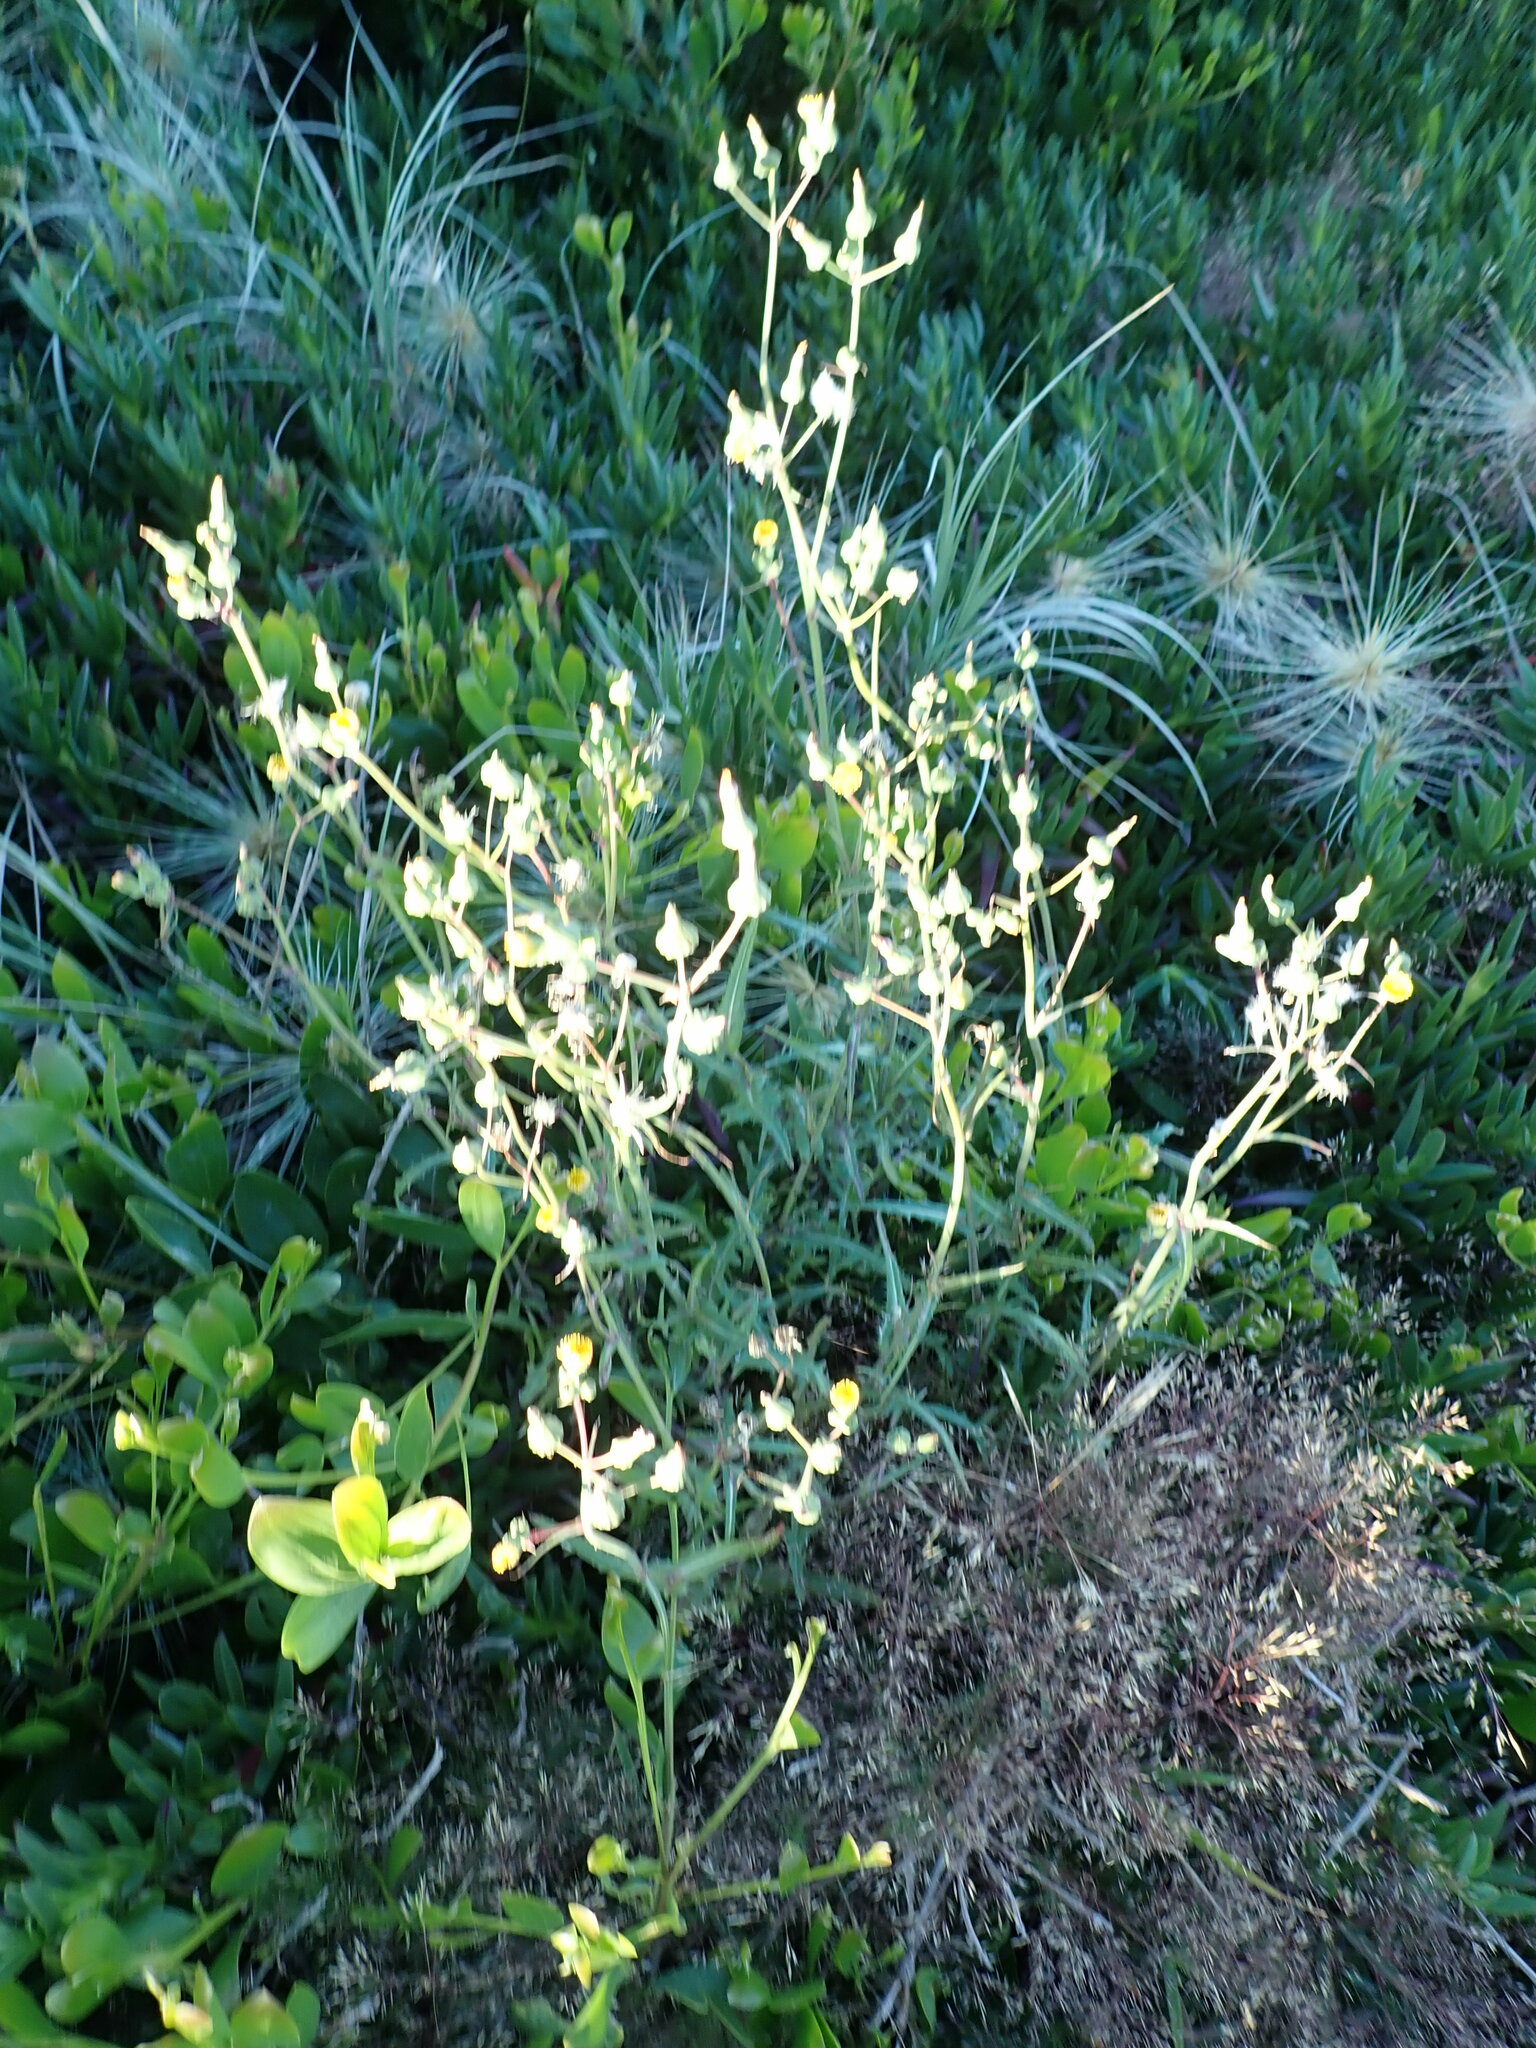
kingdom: Plantae
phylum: Tracheophyta
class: Magnoliopsida
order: Asterales
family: Asteraceae
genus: Sonchus
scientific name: Sonchus oleraceus
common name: Common sowthistle
